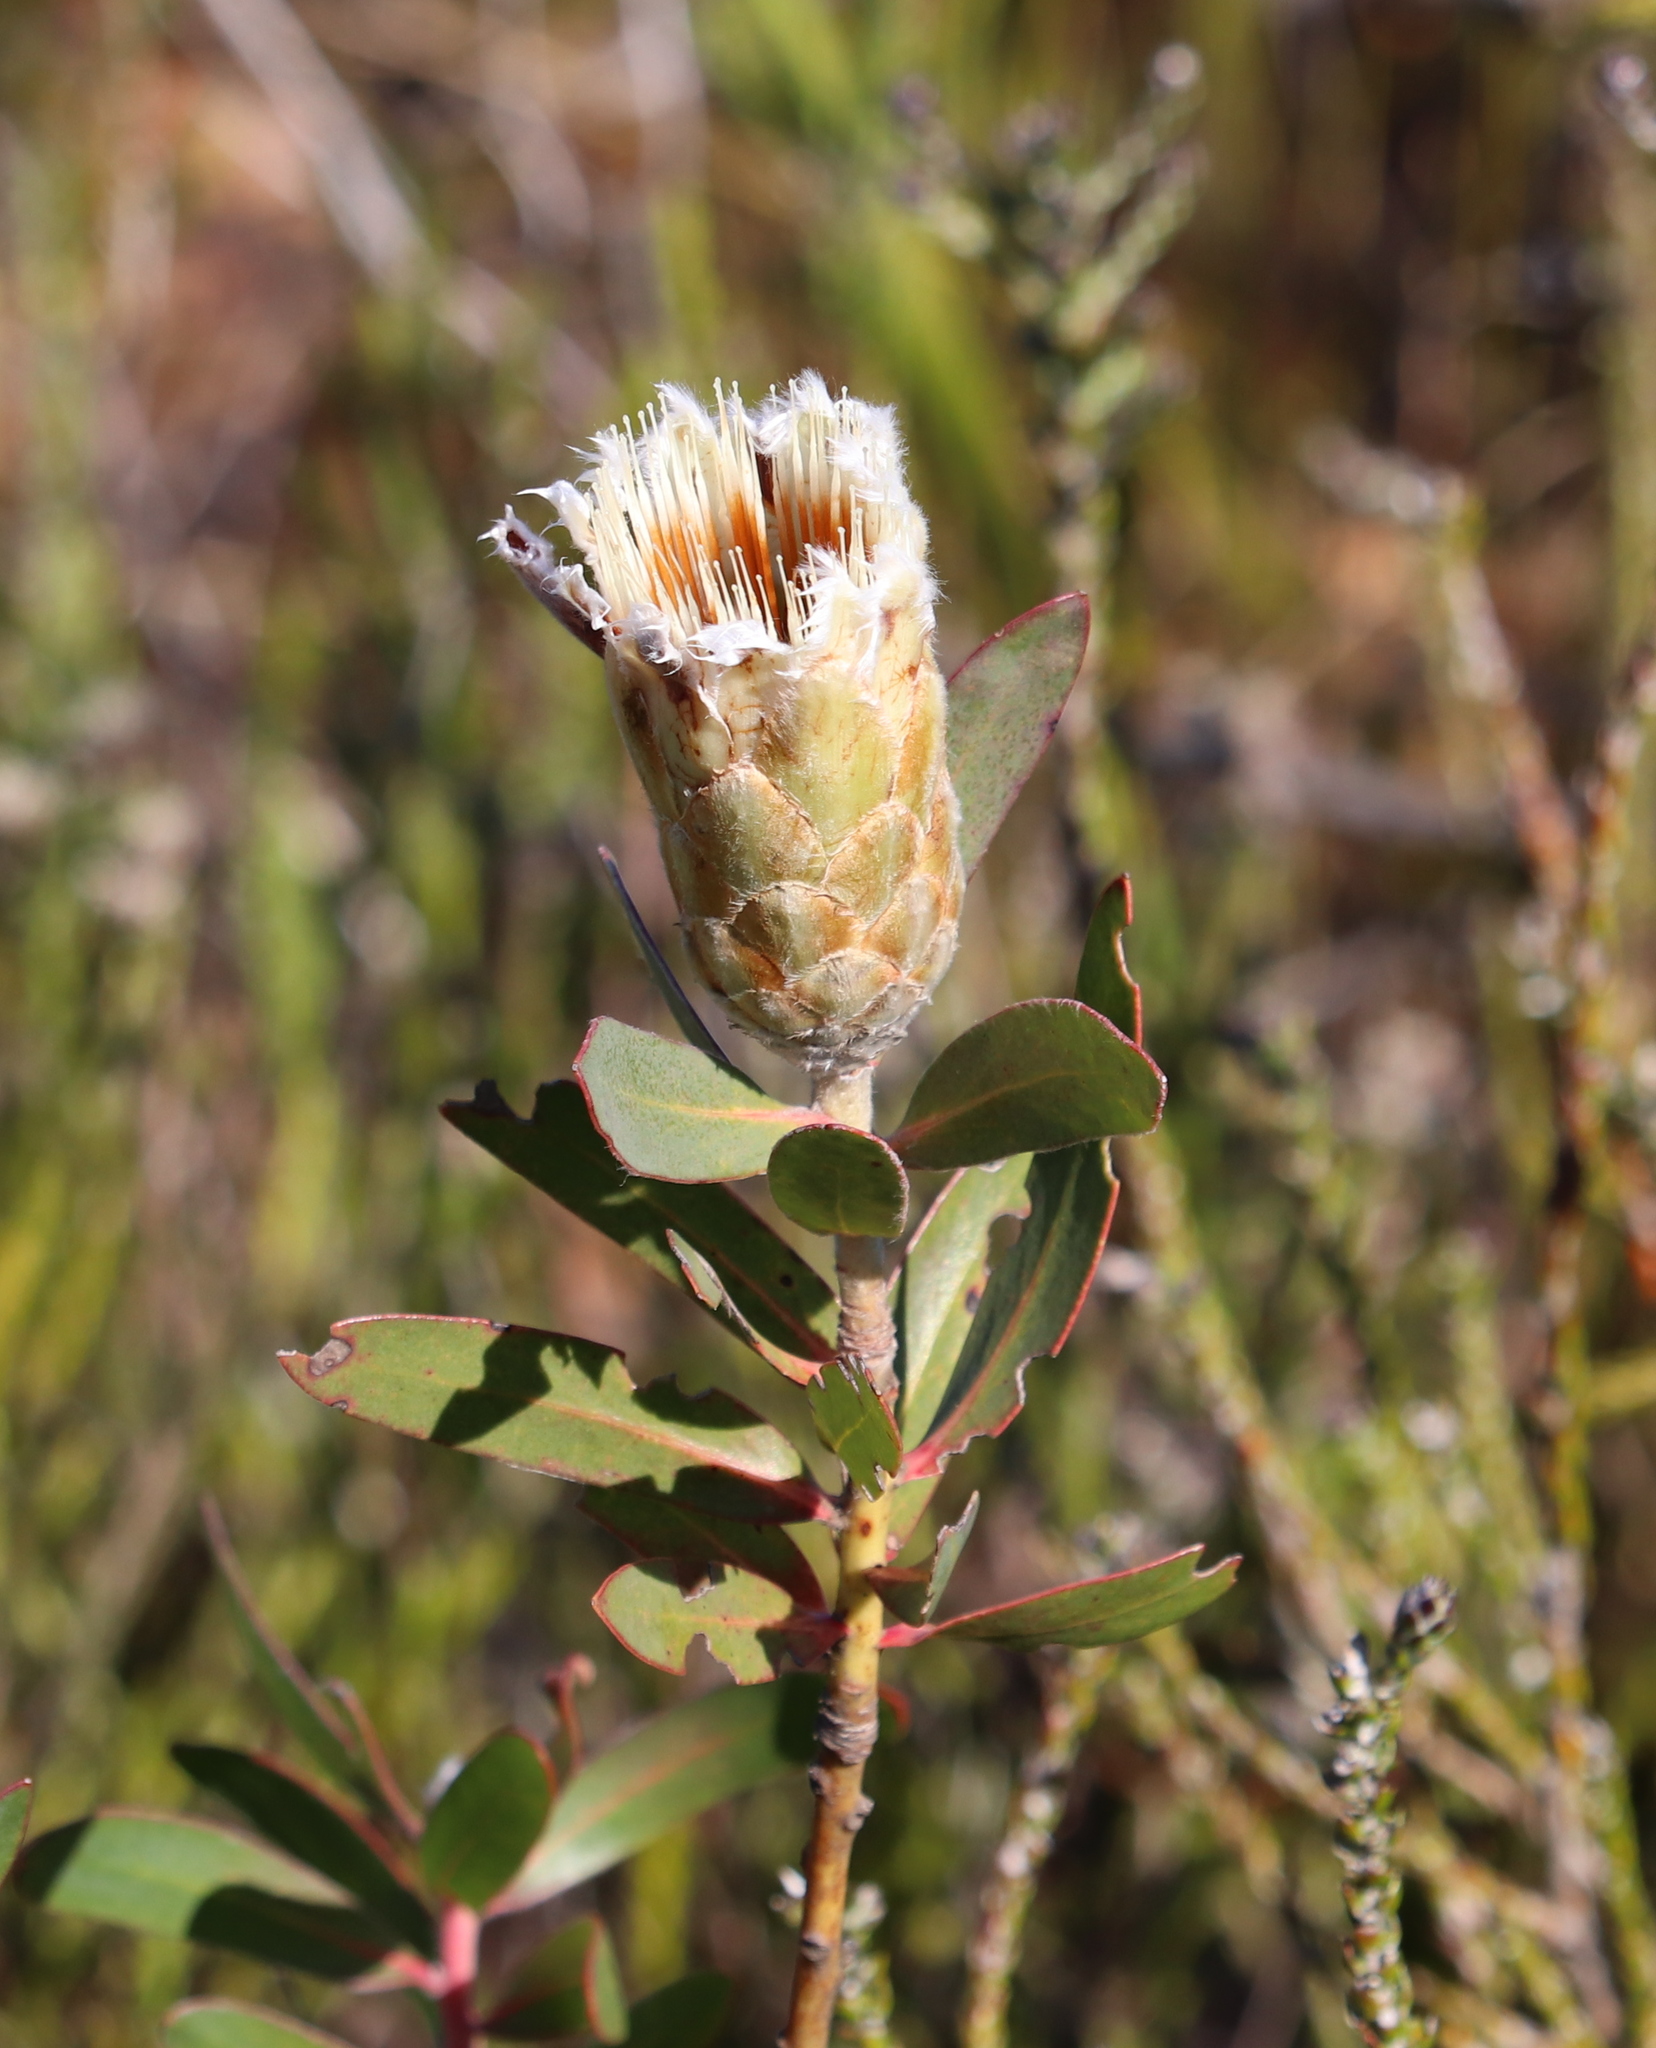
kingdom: Plantae
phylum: Tracheophyta
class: Magnoliopsida
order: Proteales
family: Proteaceae
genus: Protea
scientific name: Protea mundii
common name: Forest sugarbush
